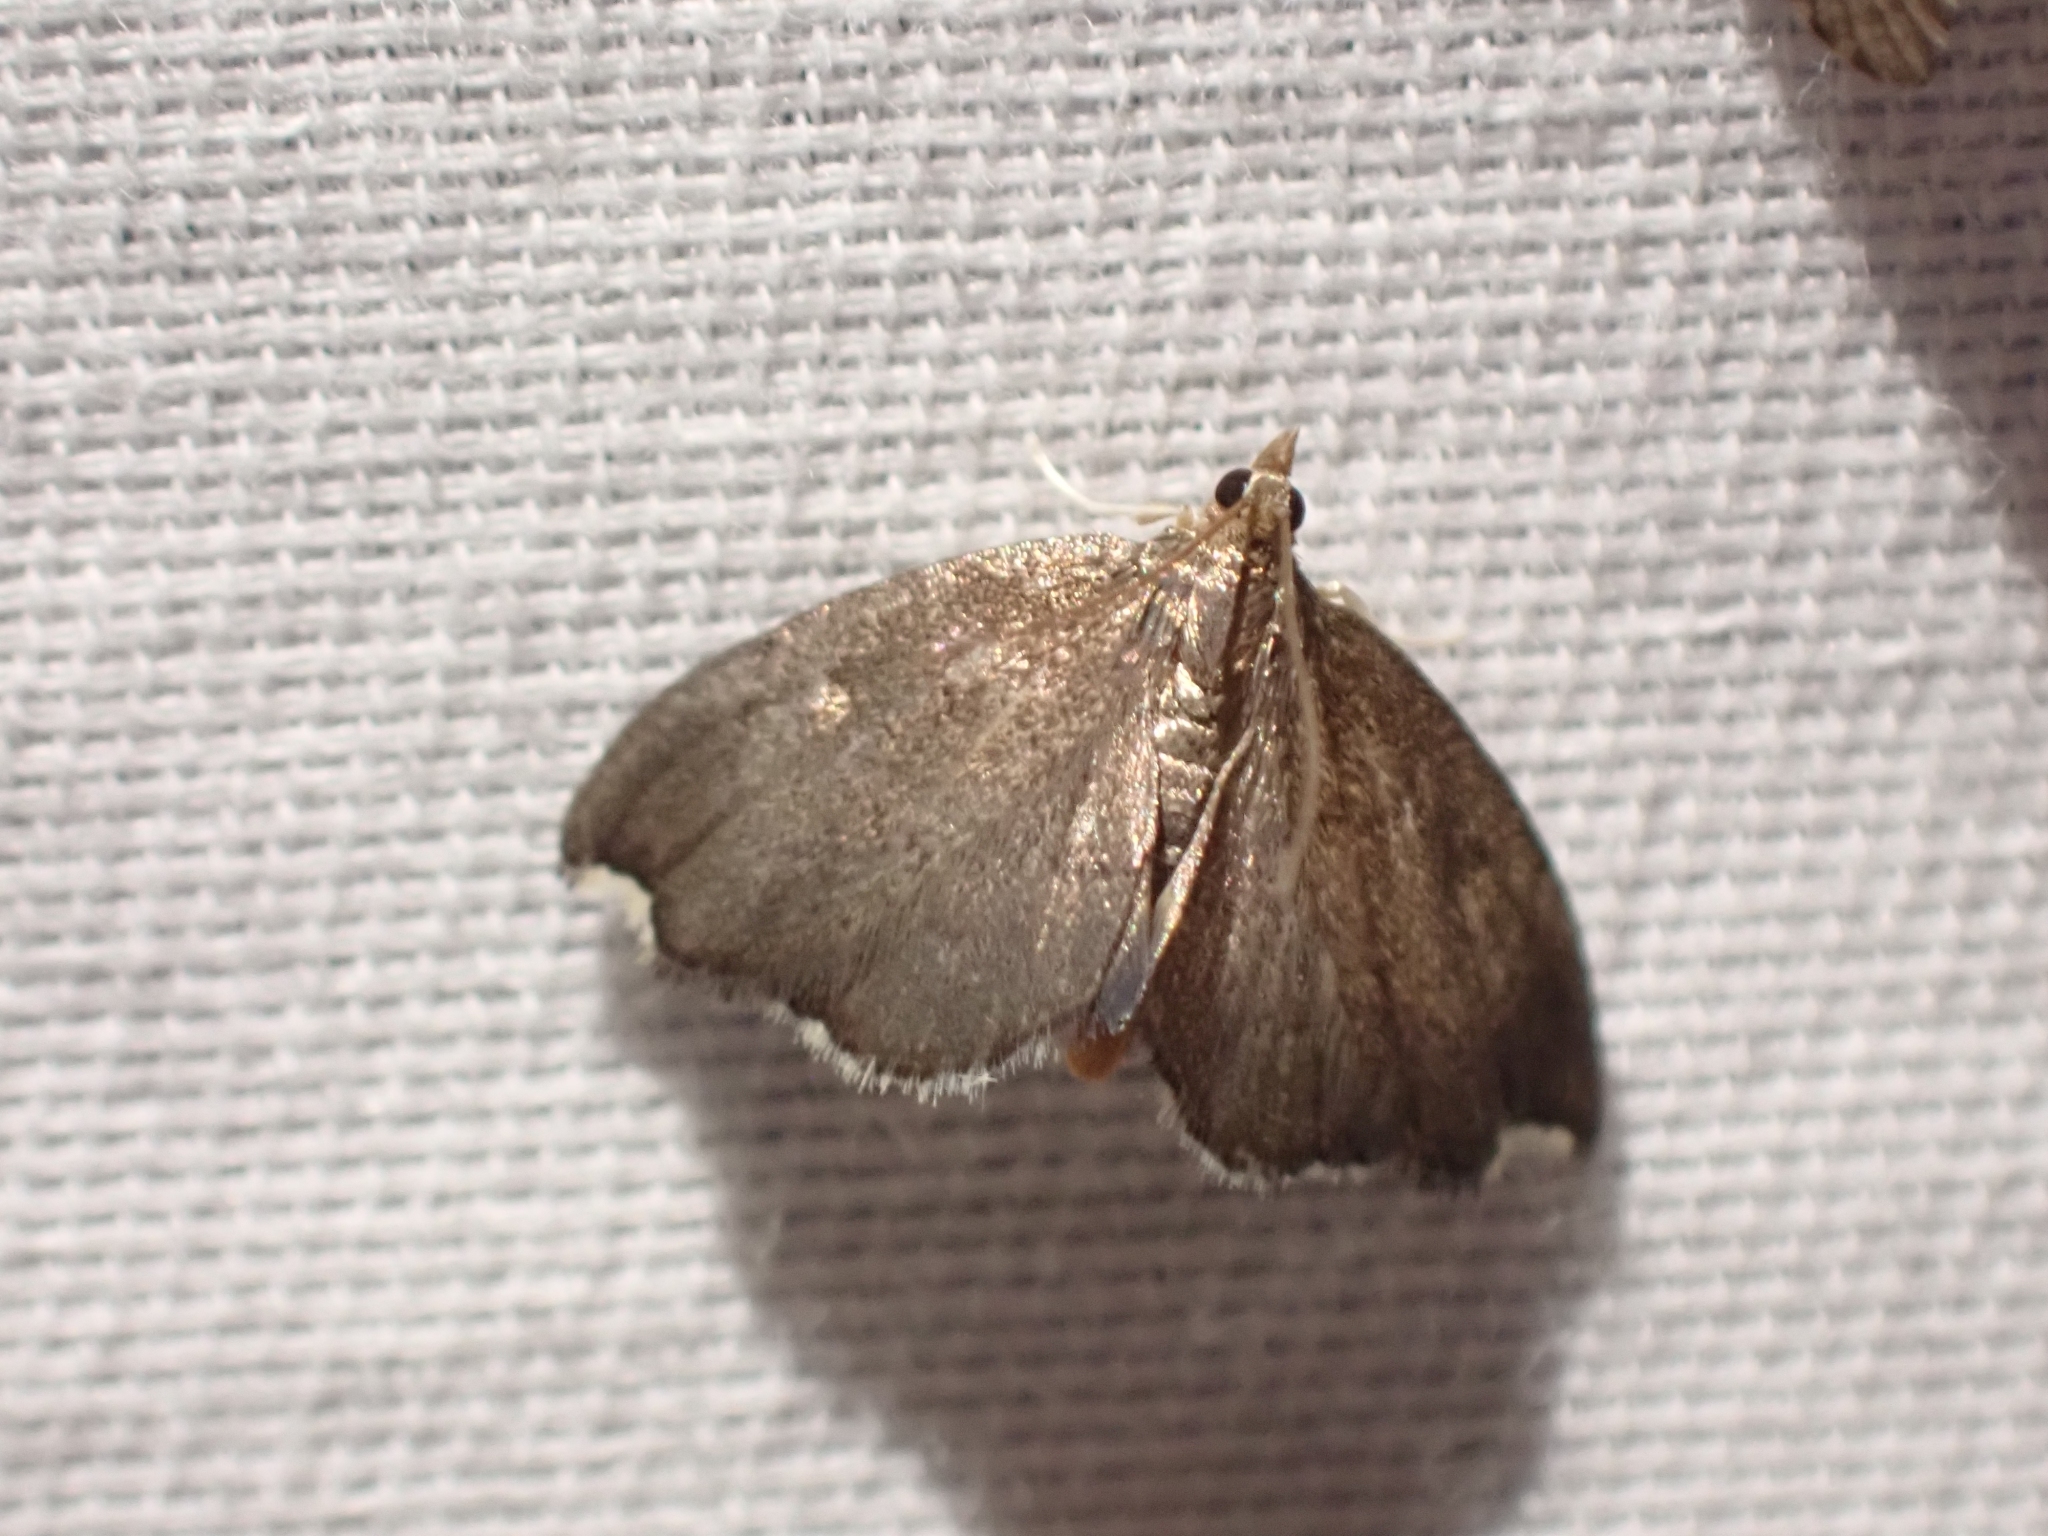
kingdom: Animalia
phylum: Arthropoda
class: Insecta
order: Lepidoptera
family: Crambidae
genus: Perispasta
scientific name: Perispasta caeculalis
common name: Titian peale's moth
